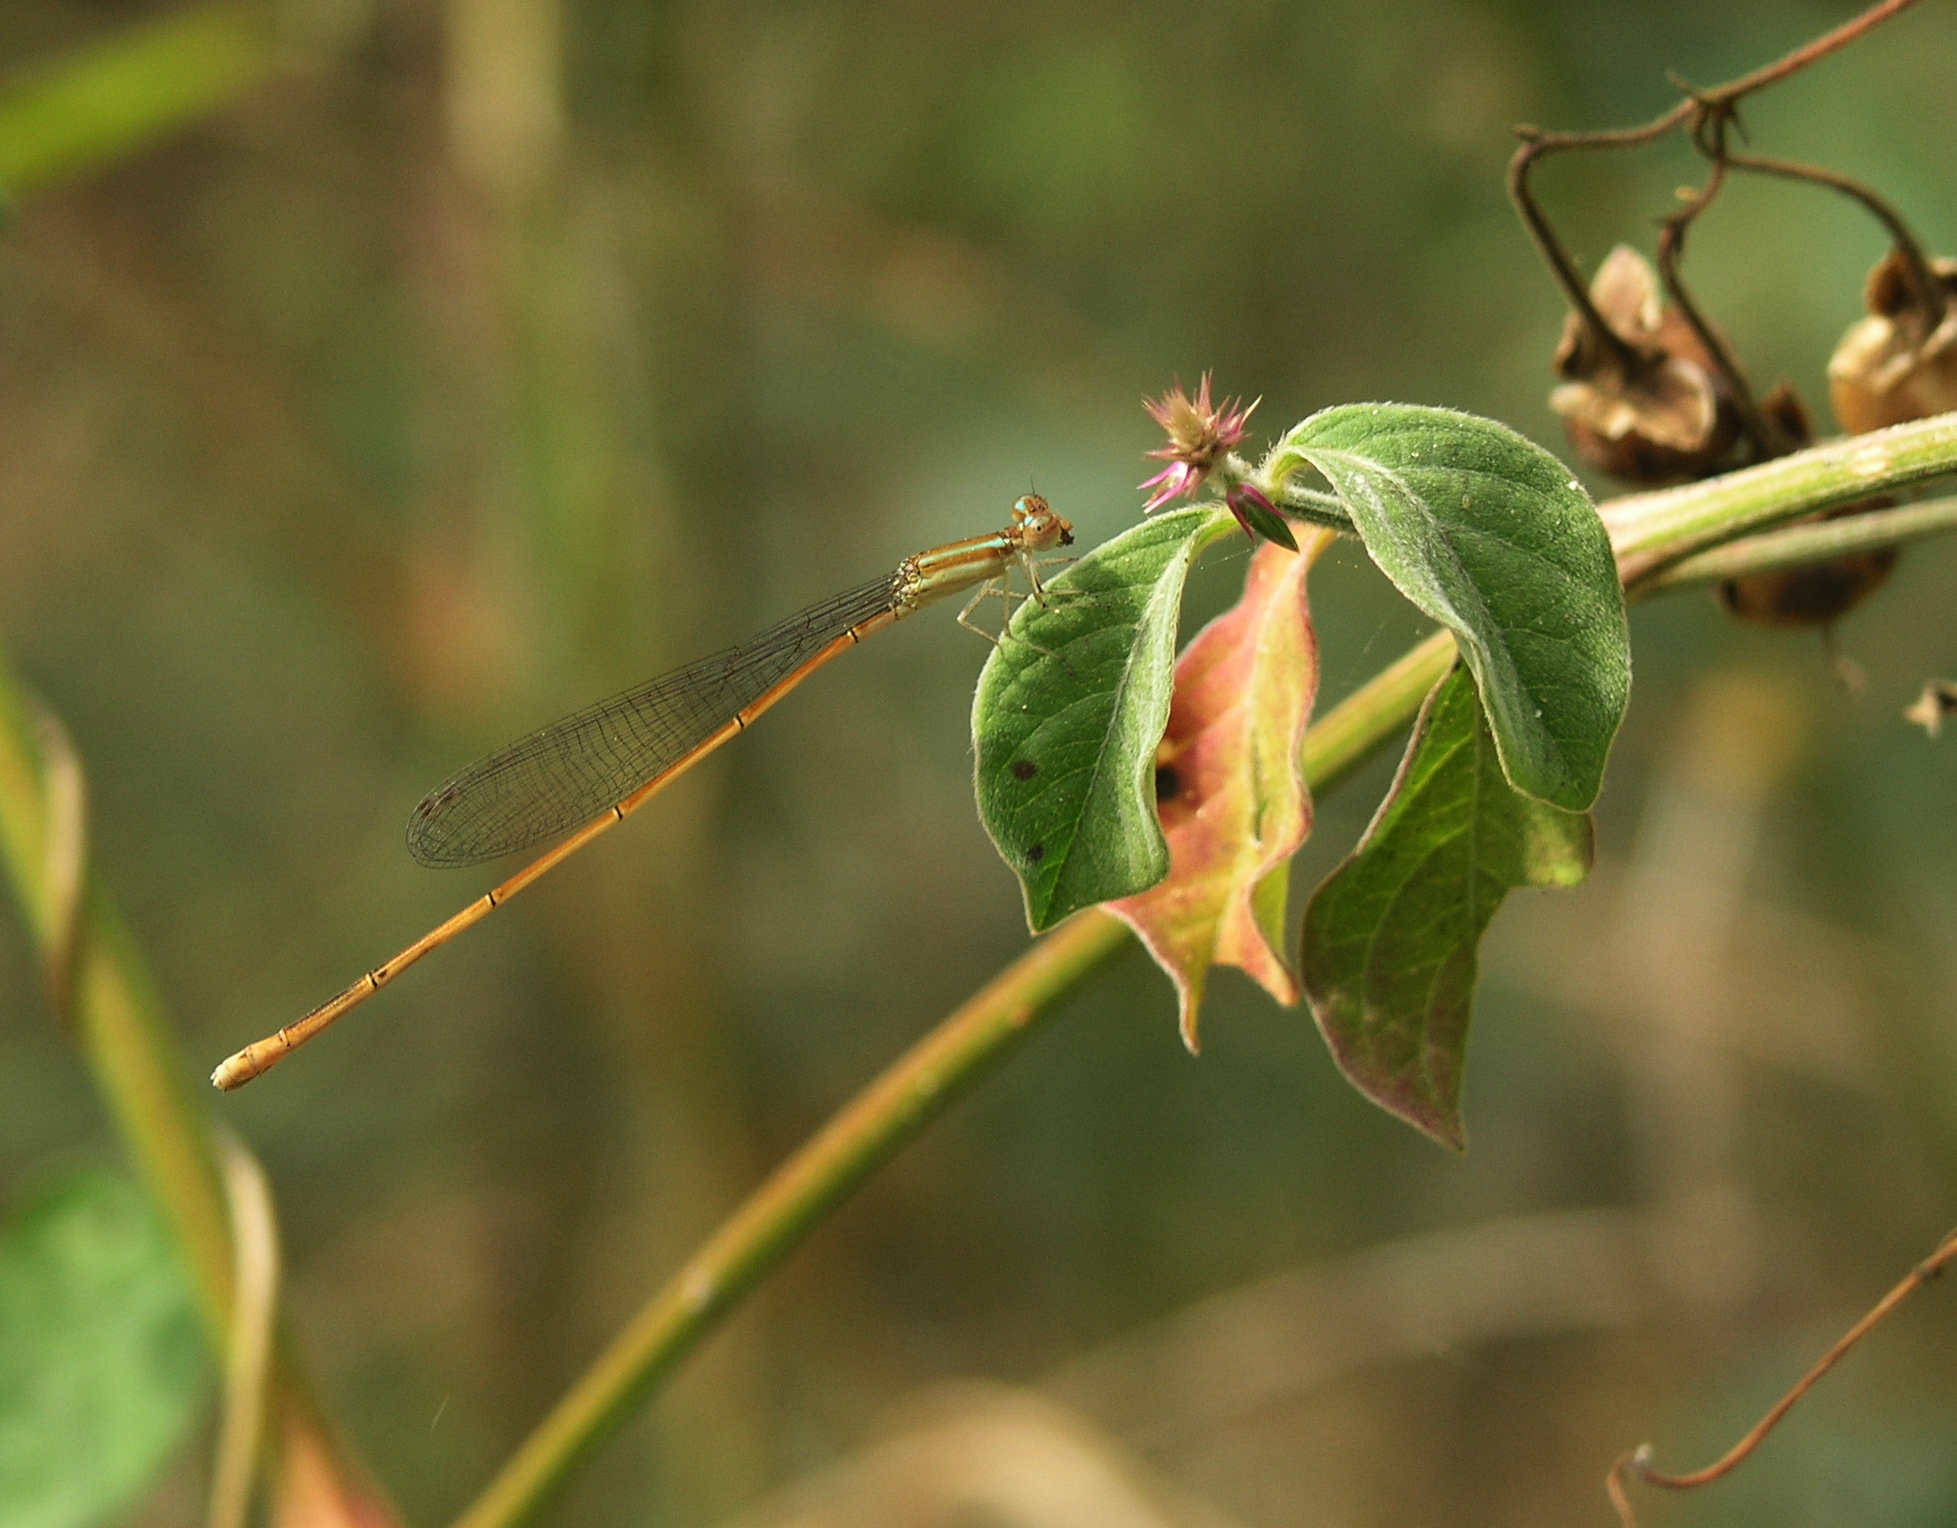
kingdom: Animalia
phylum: Arthropoda
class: Insecta
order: Odonata
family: Coenagrionidae
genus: Aciagrion
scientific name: Aciagrion pallidum
